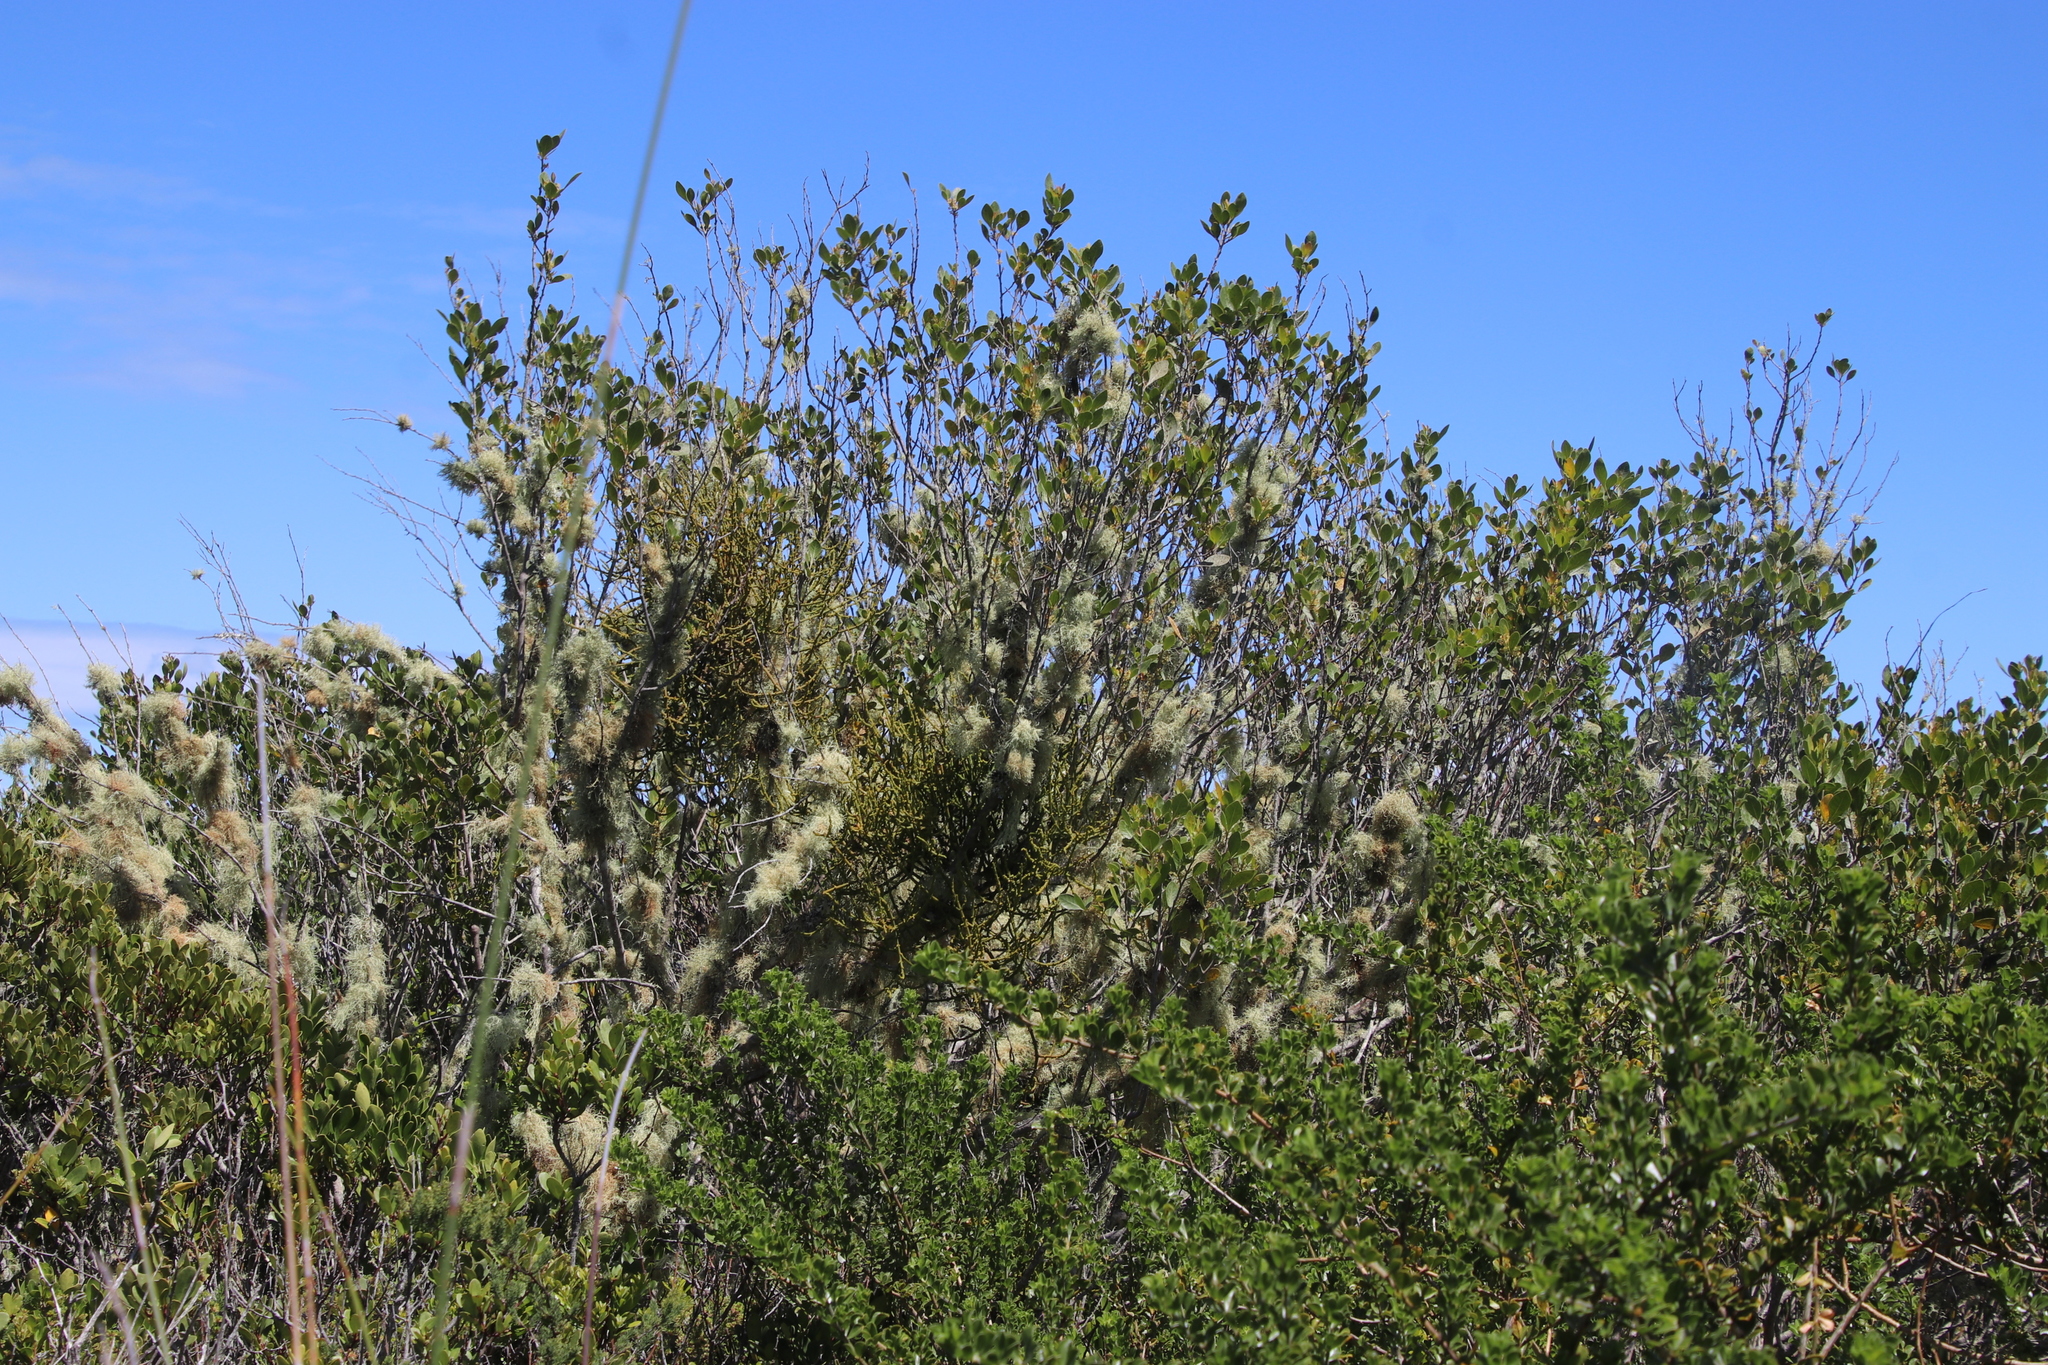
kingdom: Plantae
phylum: Tracheophyta
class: Magnoliopsida
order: Sapindales
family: Anacardiaceae
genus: Searsia
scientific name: Searsia lucida
